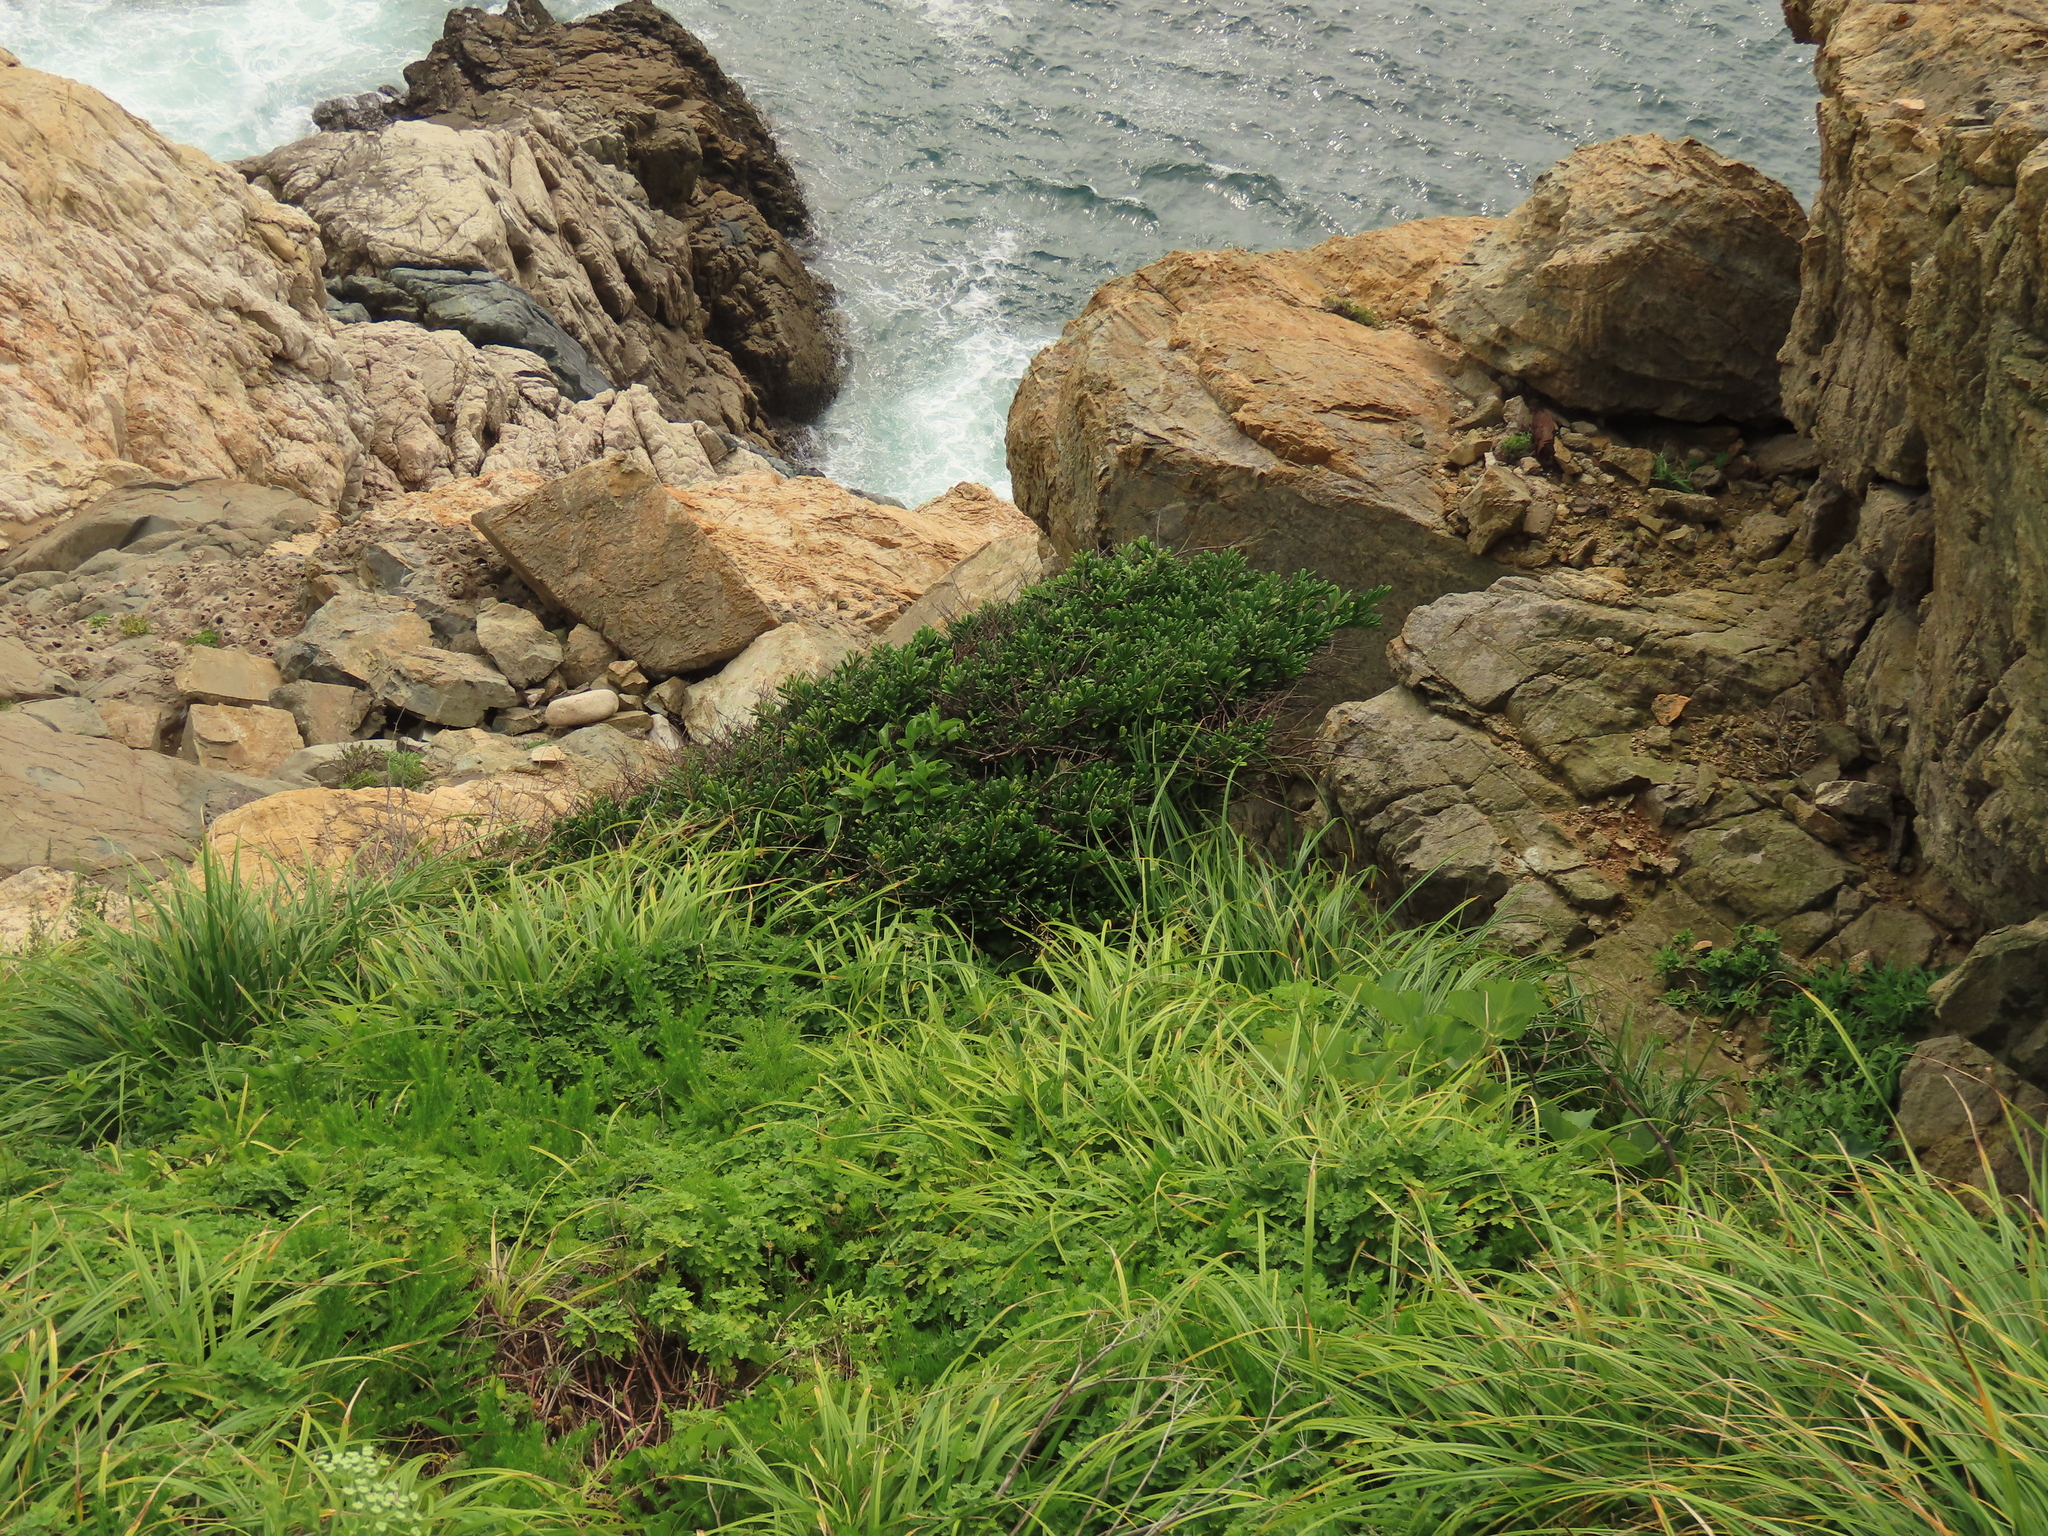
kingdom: Plantae
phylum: Tracheophyta
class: Magnoliopsida
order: Ericales
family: Pentaphylacaceae
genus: Eurya
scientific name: Eurya emarginata
